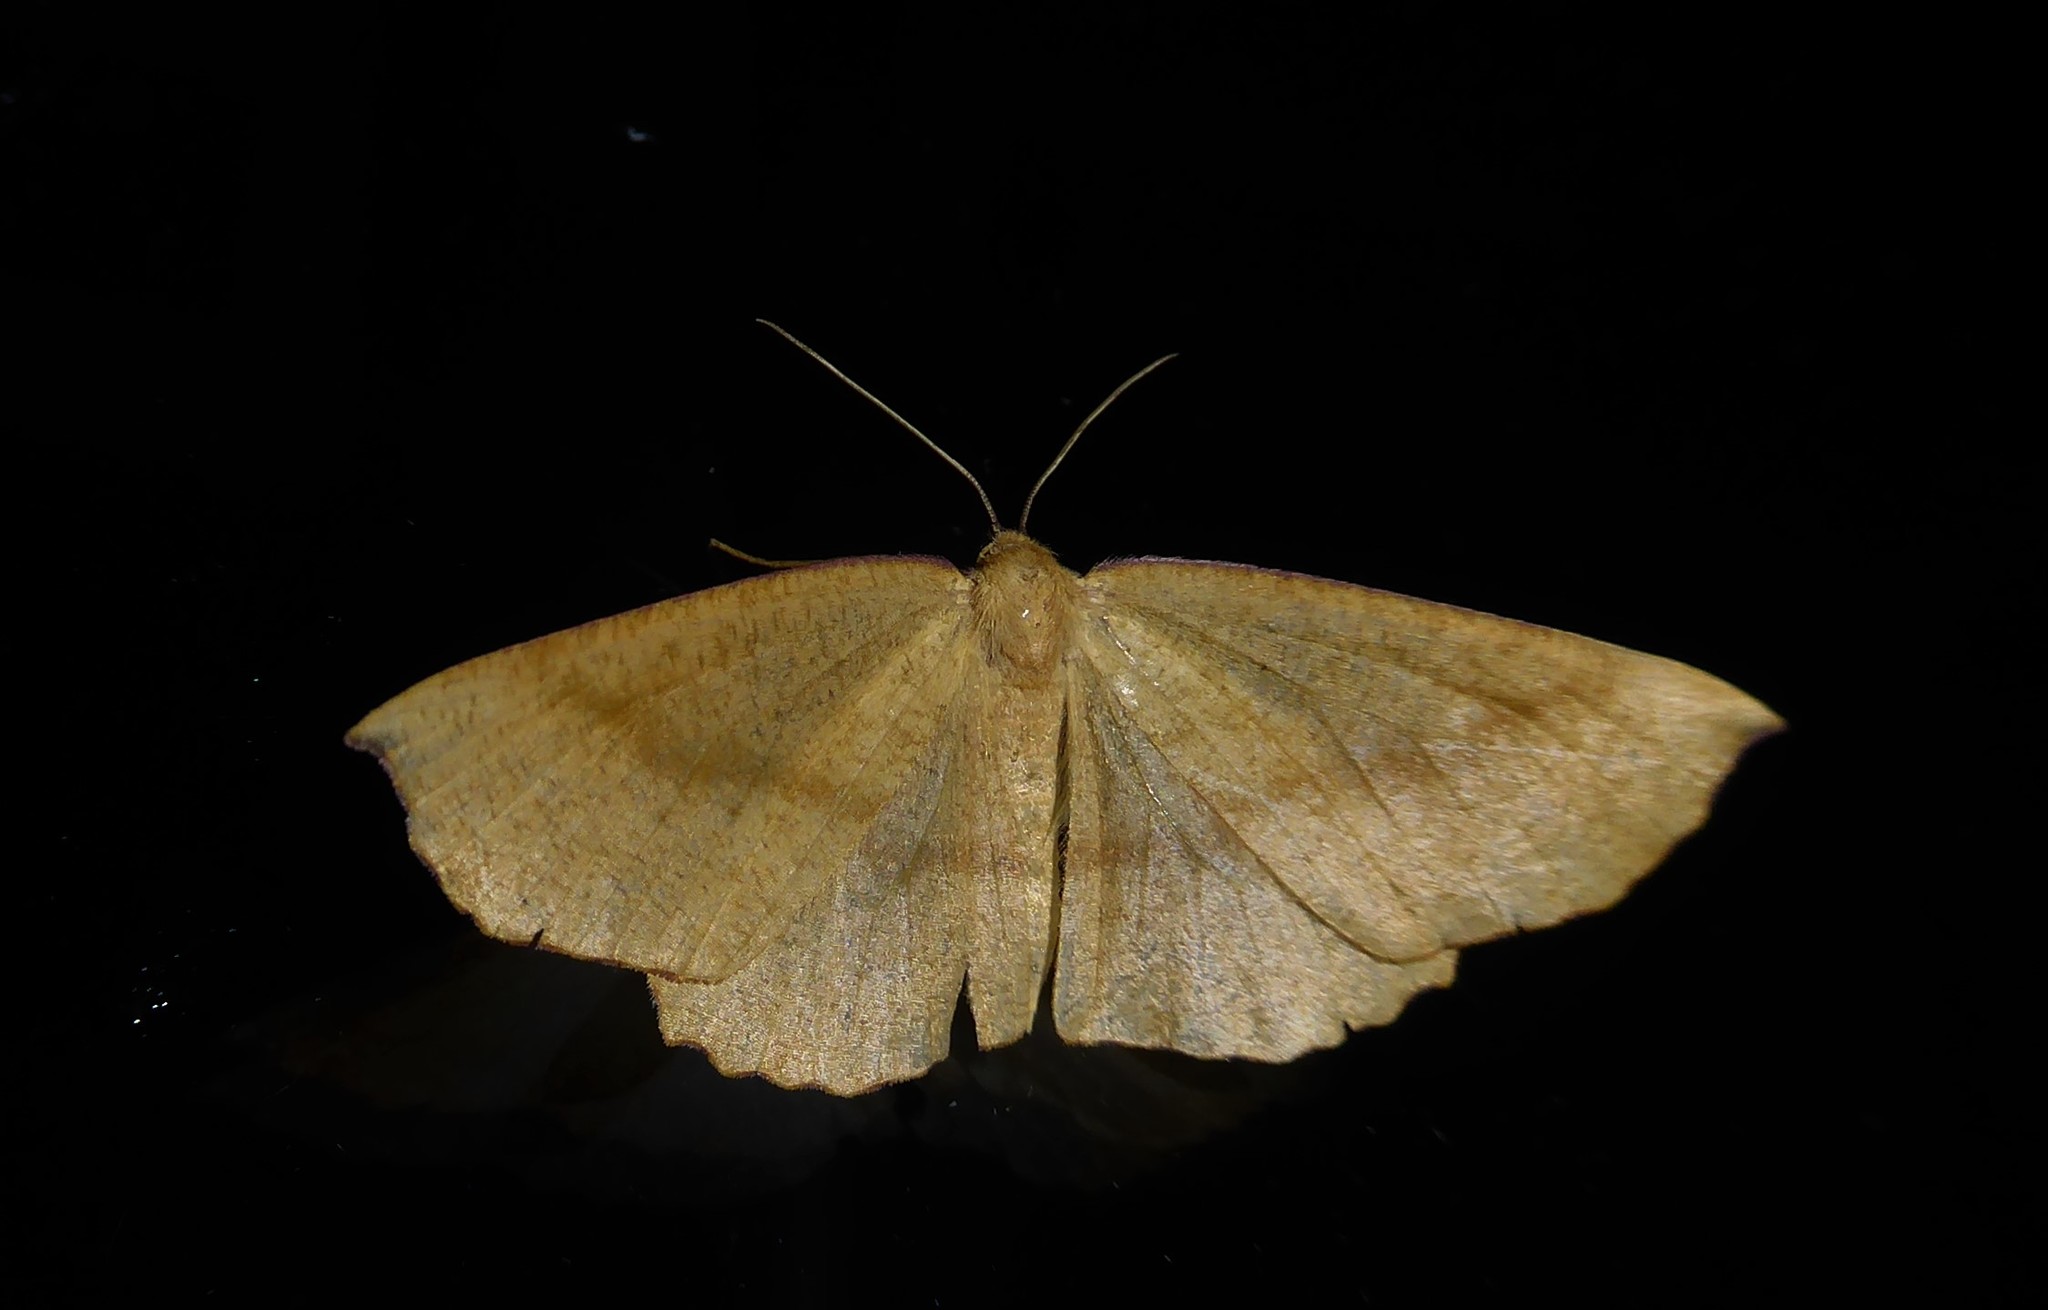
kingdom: Animalia
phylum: Arthropoda
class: Insecta
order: Lepidoptera
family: Geometridae
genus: Xyridacma
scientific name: Xyridacma alectoraria
